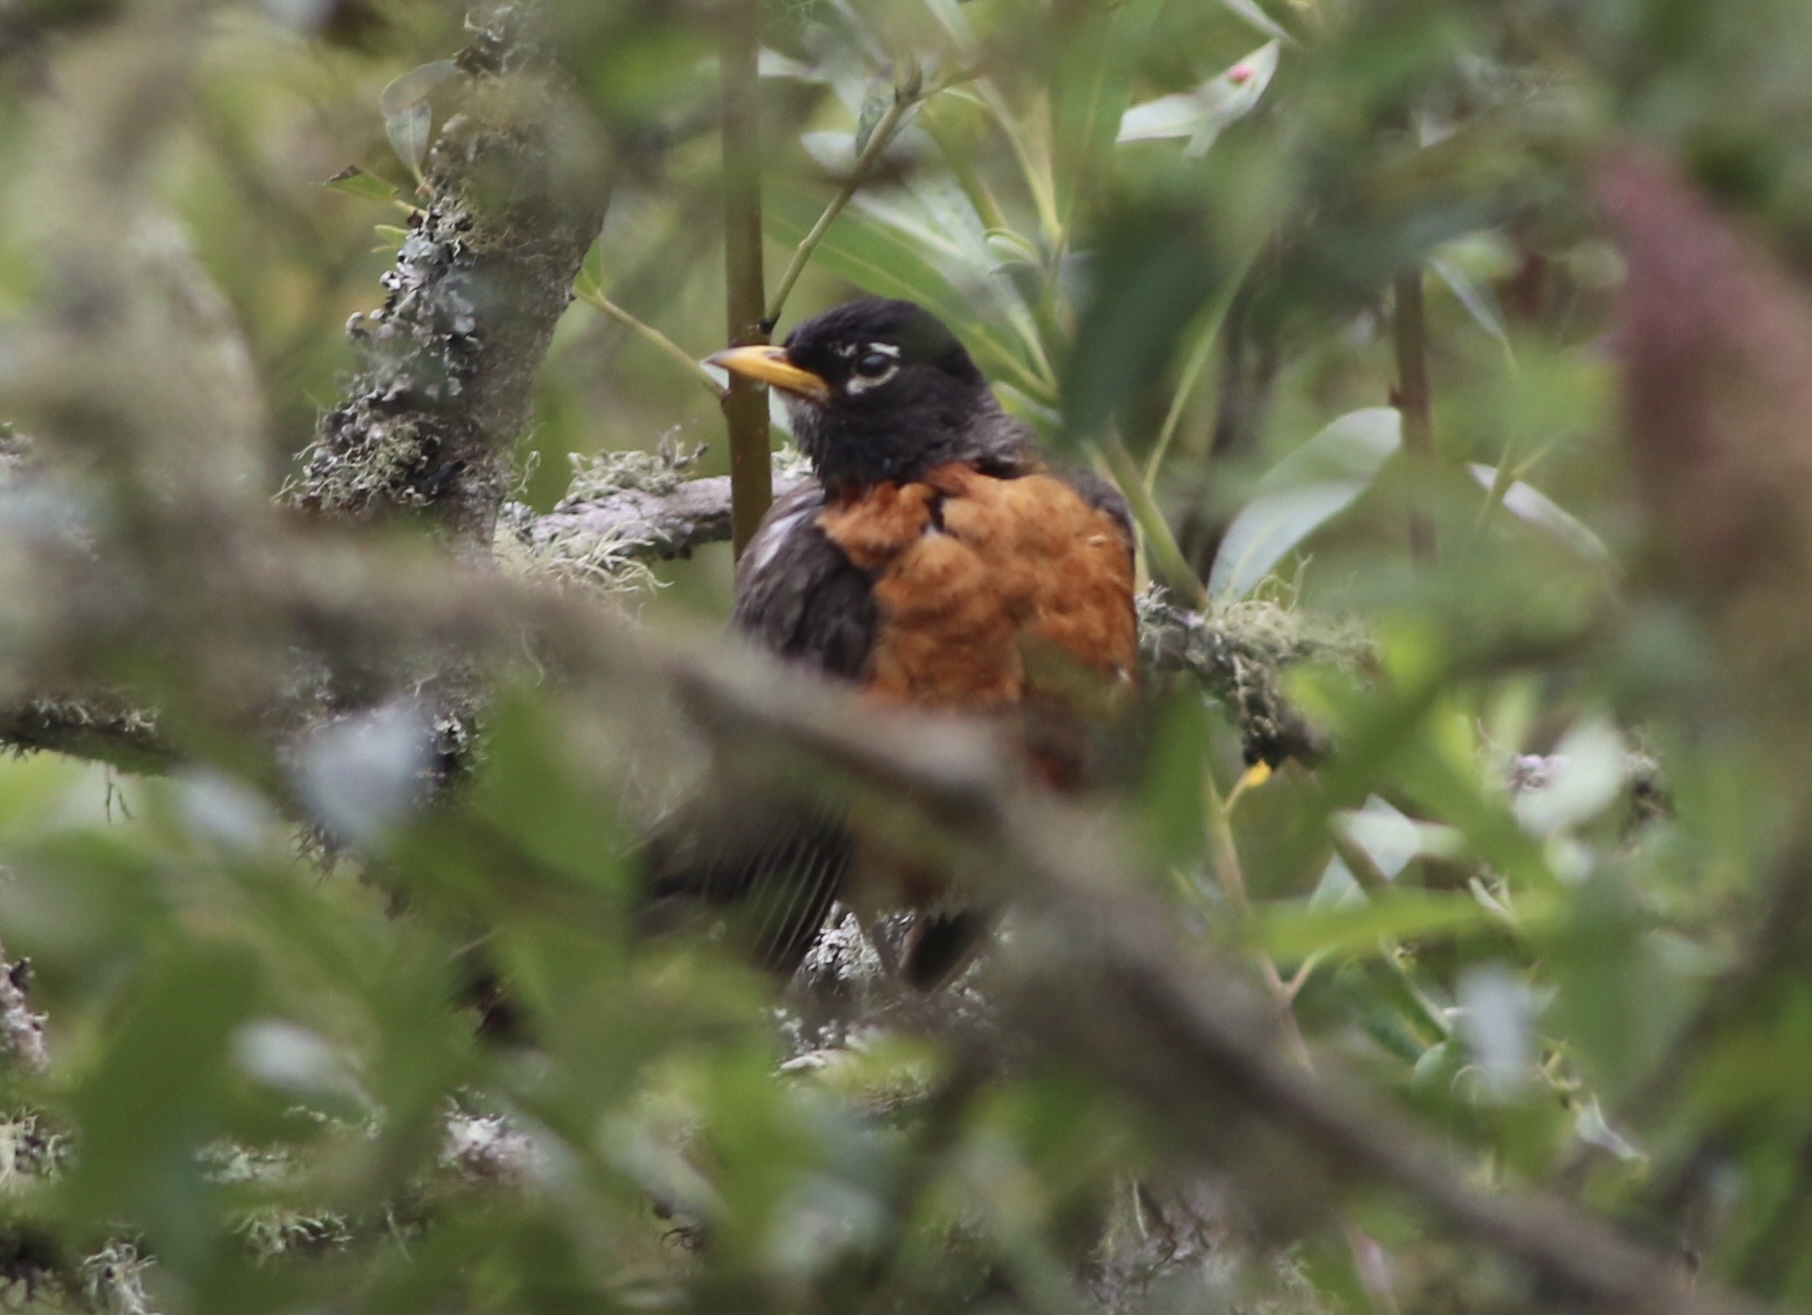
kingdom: Animalia
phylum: Chordata
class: Aves
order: Passeriformes
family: Turdidae
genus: Turdus
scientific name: Turdus migratorius
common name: American robin
